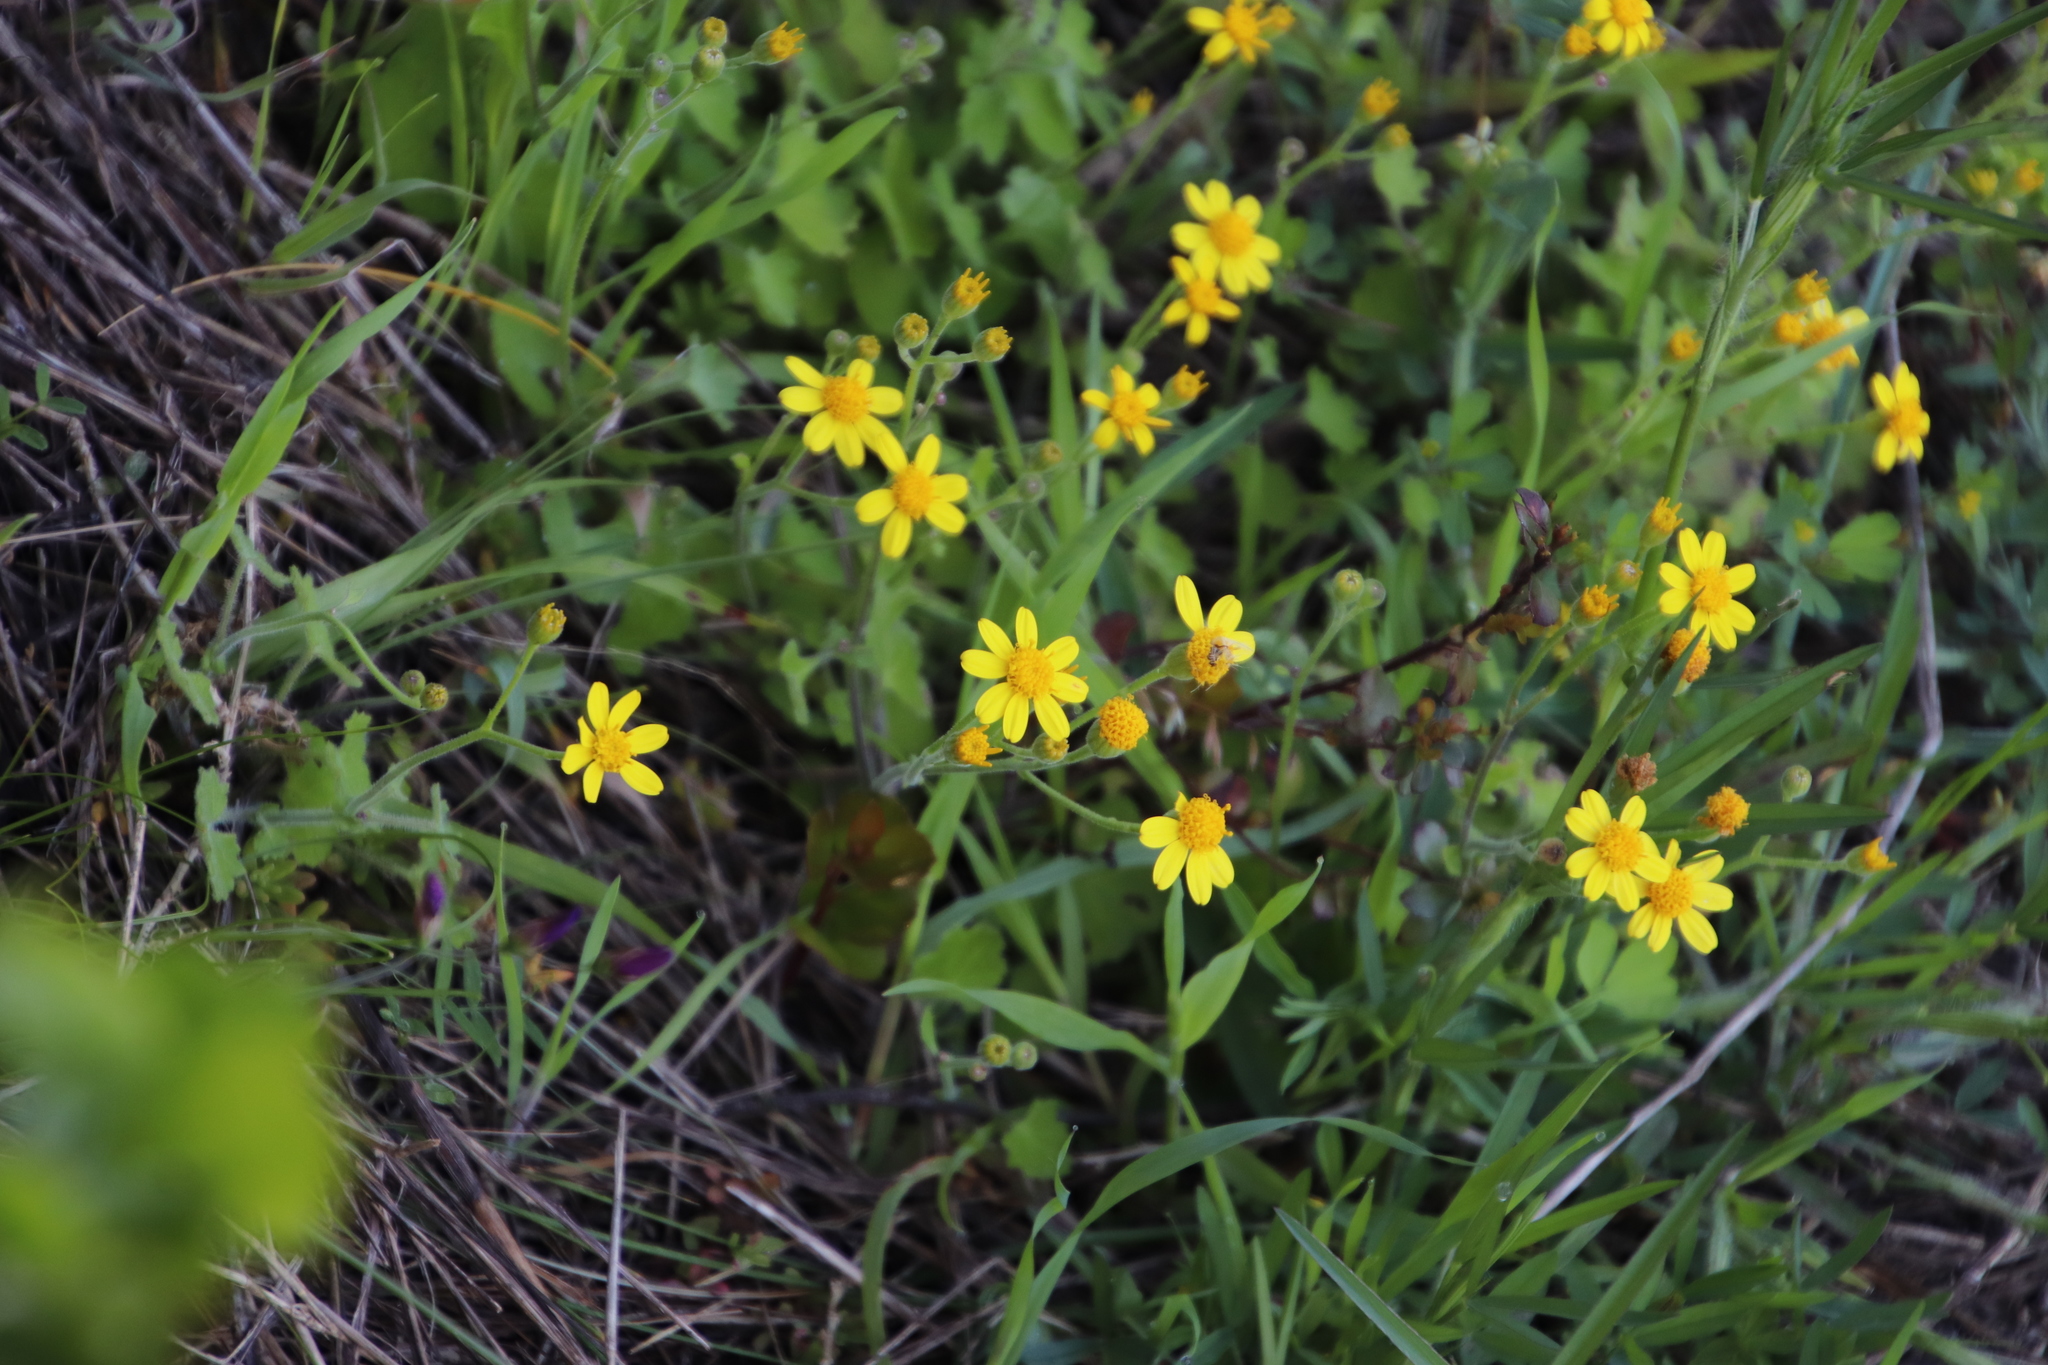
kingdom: Plantae
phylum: Tracheophyta
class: Magnoliopsida
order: Asterales
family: Asteraceae
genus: Cineraria
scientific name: Cineraria geifolia
